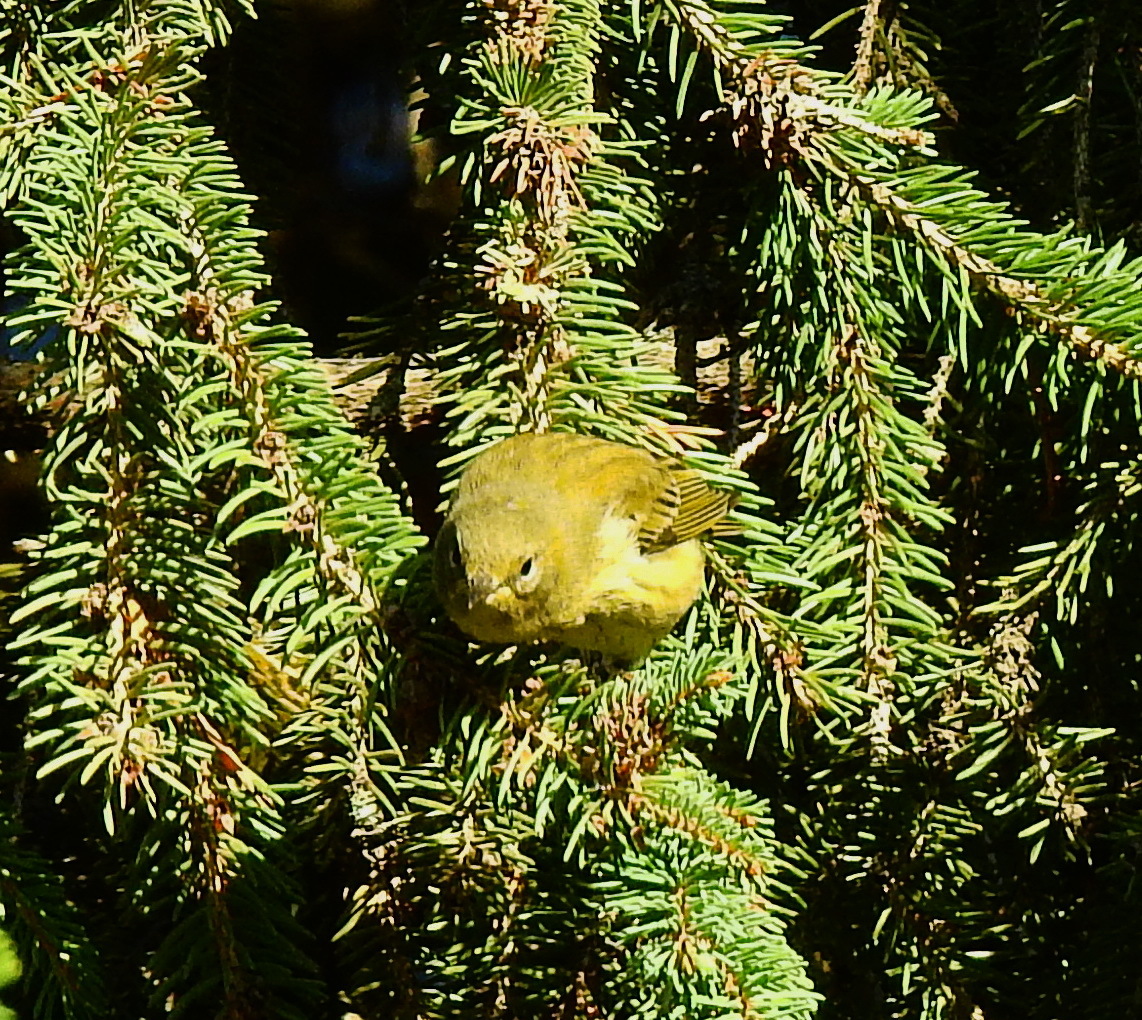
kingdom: Animalia
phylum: Chordata
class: Aves
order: Passeriformes
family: Parulidae
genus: Setophaga
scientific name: Setophaga tigrina
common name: Cape may warbler
